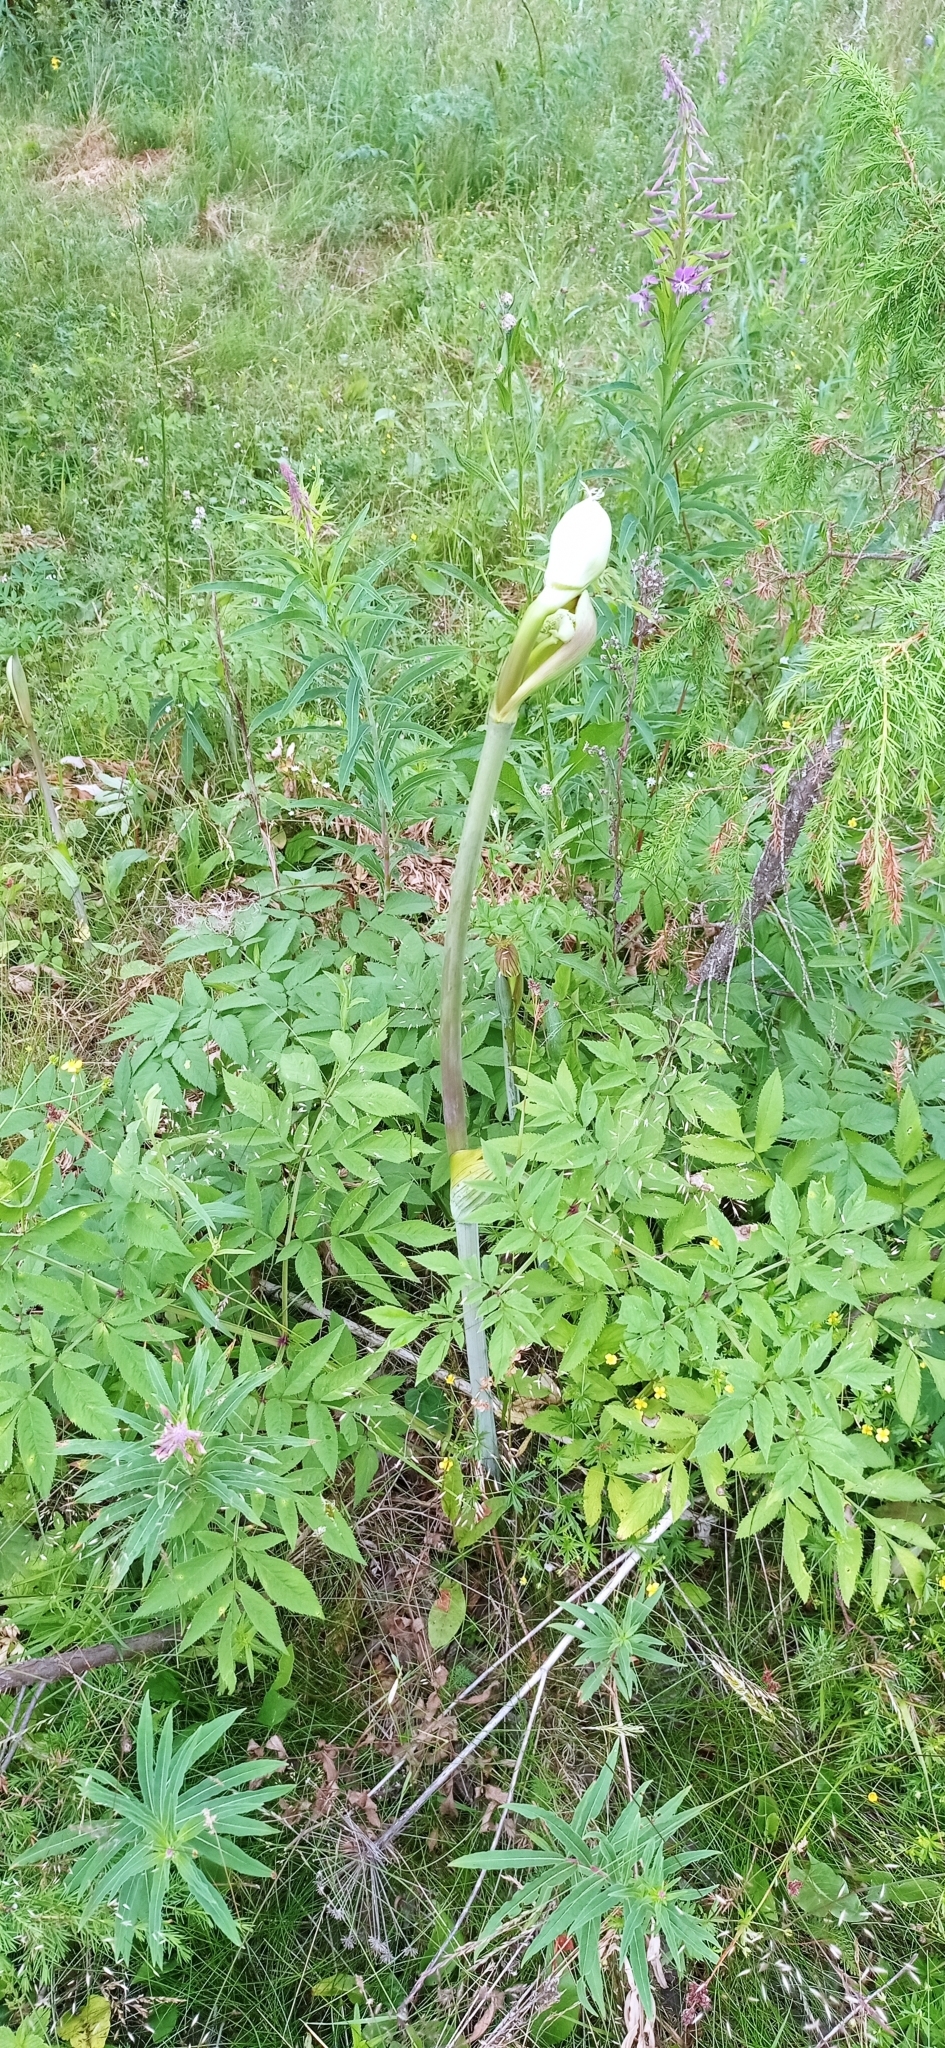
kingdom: Plantae
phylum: Tracheophyta
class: Magnoliopsida
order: Apiales
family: Apiaceae
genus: Angelica
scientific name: Angelica sylvestris
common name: Wild angelica
